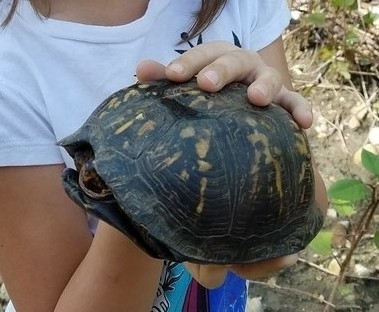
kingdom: Animalia
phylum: Chordata
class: Testudines
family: Emydidae
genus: Terrapene
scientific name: Terrapene carolina
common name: Common box turtle
